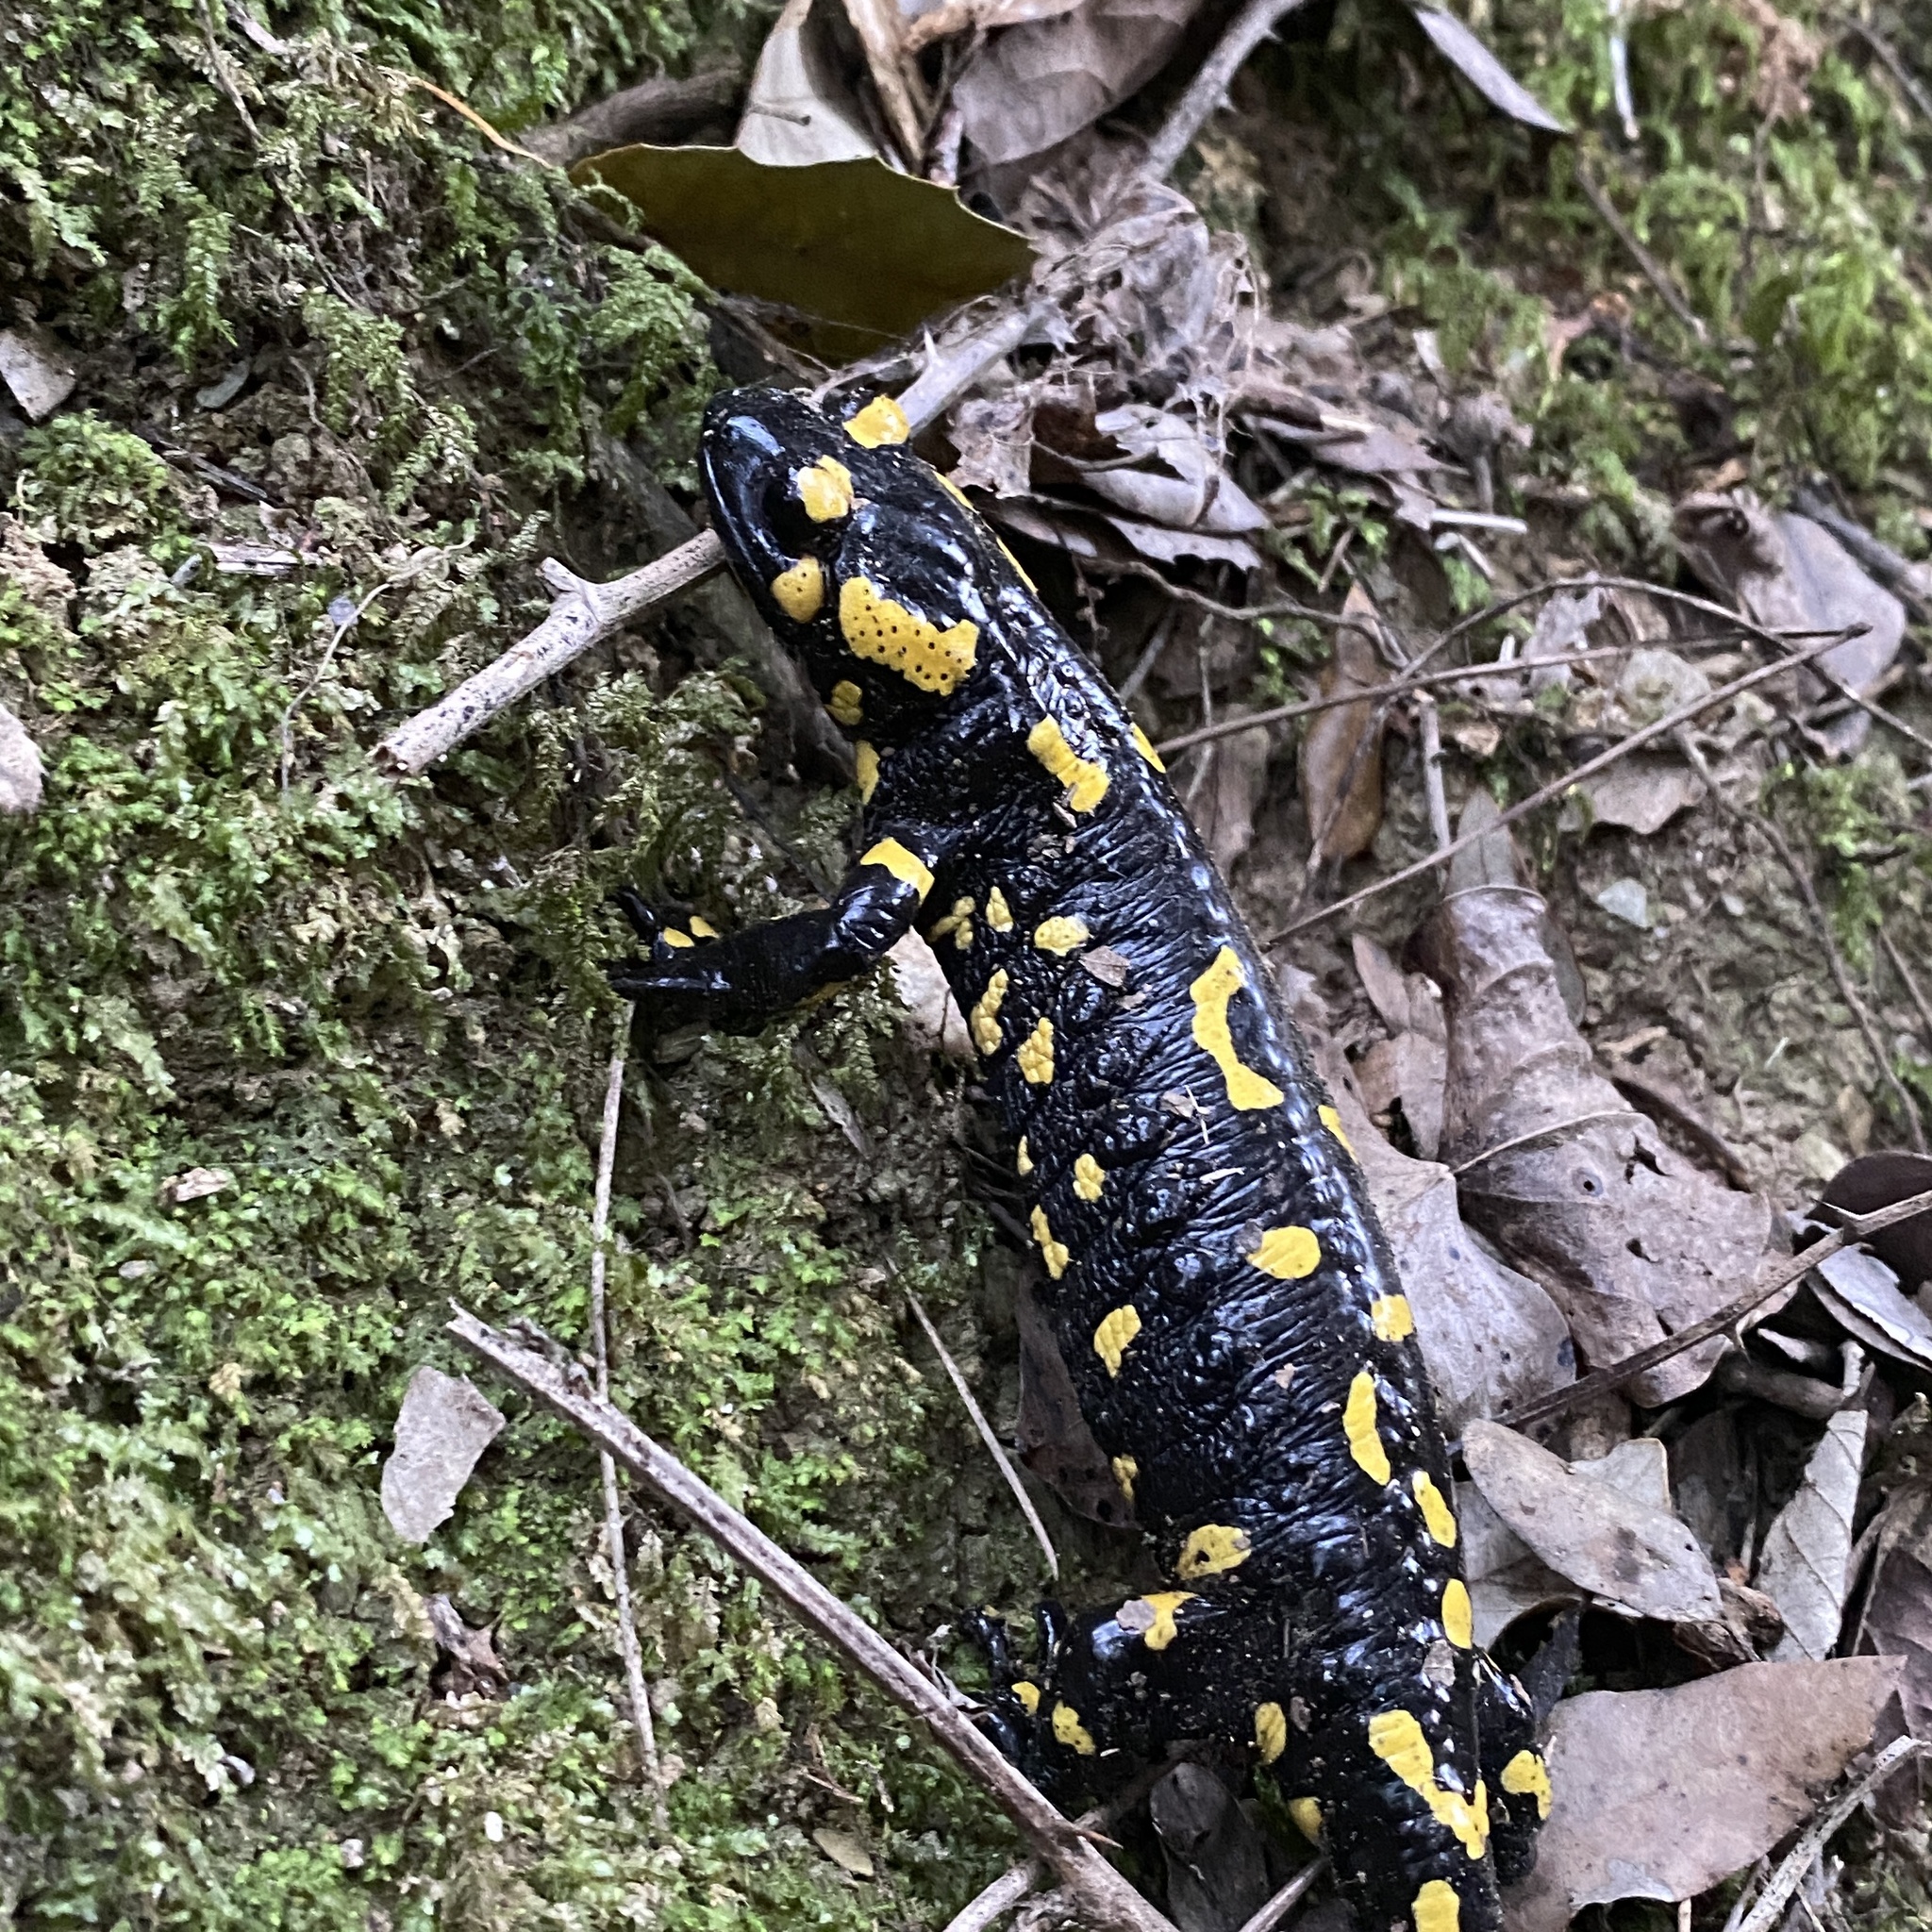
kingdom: Animalia
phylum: Chordata
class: Amphibia
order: Caudata
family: Salamandridae
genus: Salamandra
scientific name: Salamandra salamandra
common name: Fire salamander
